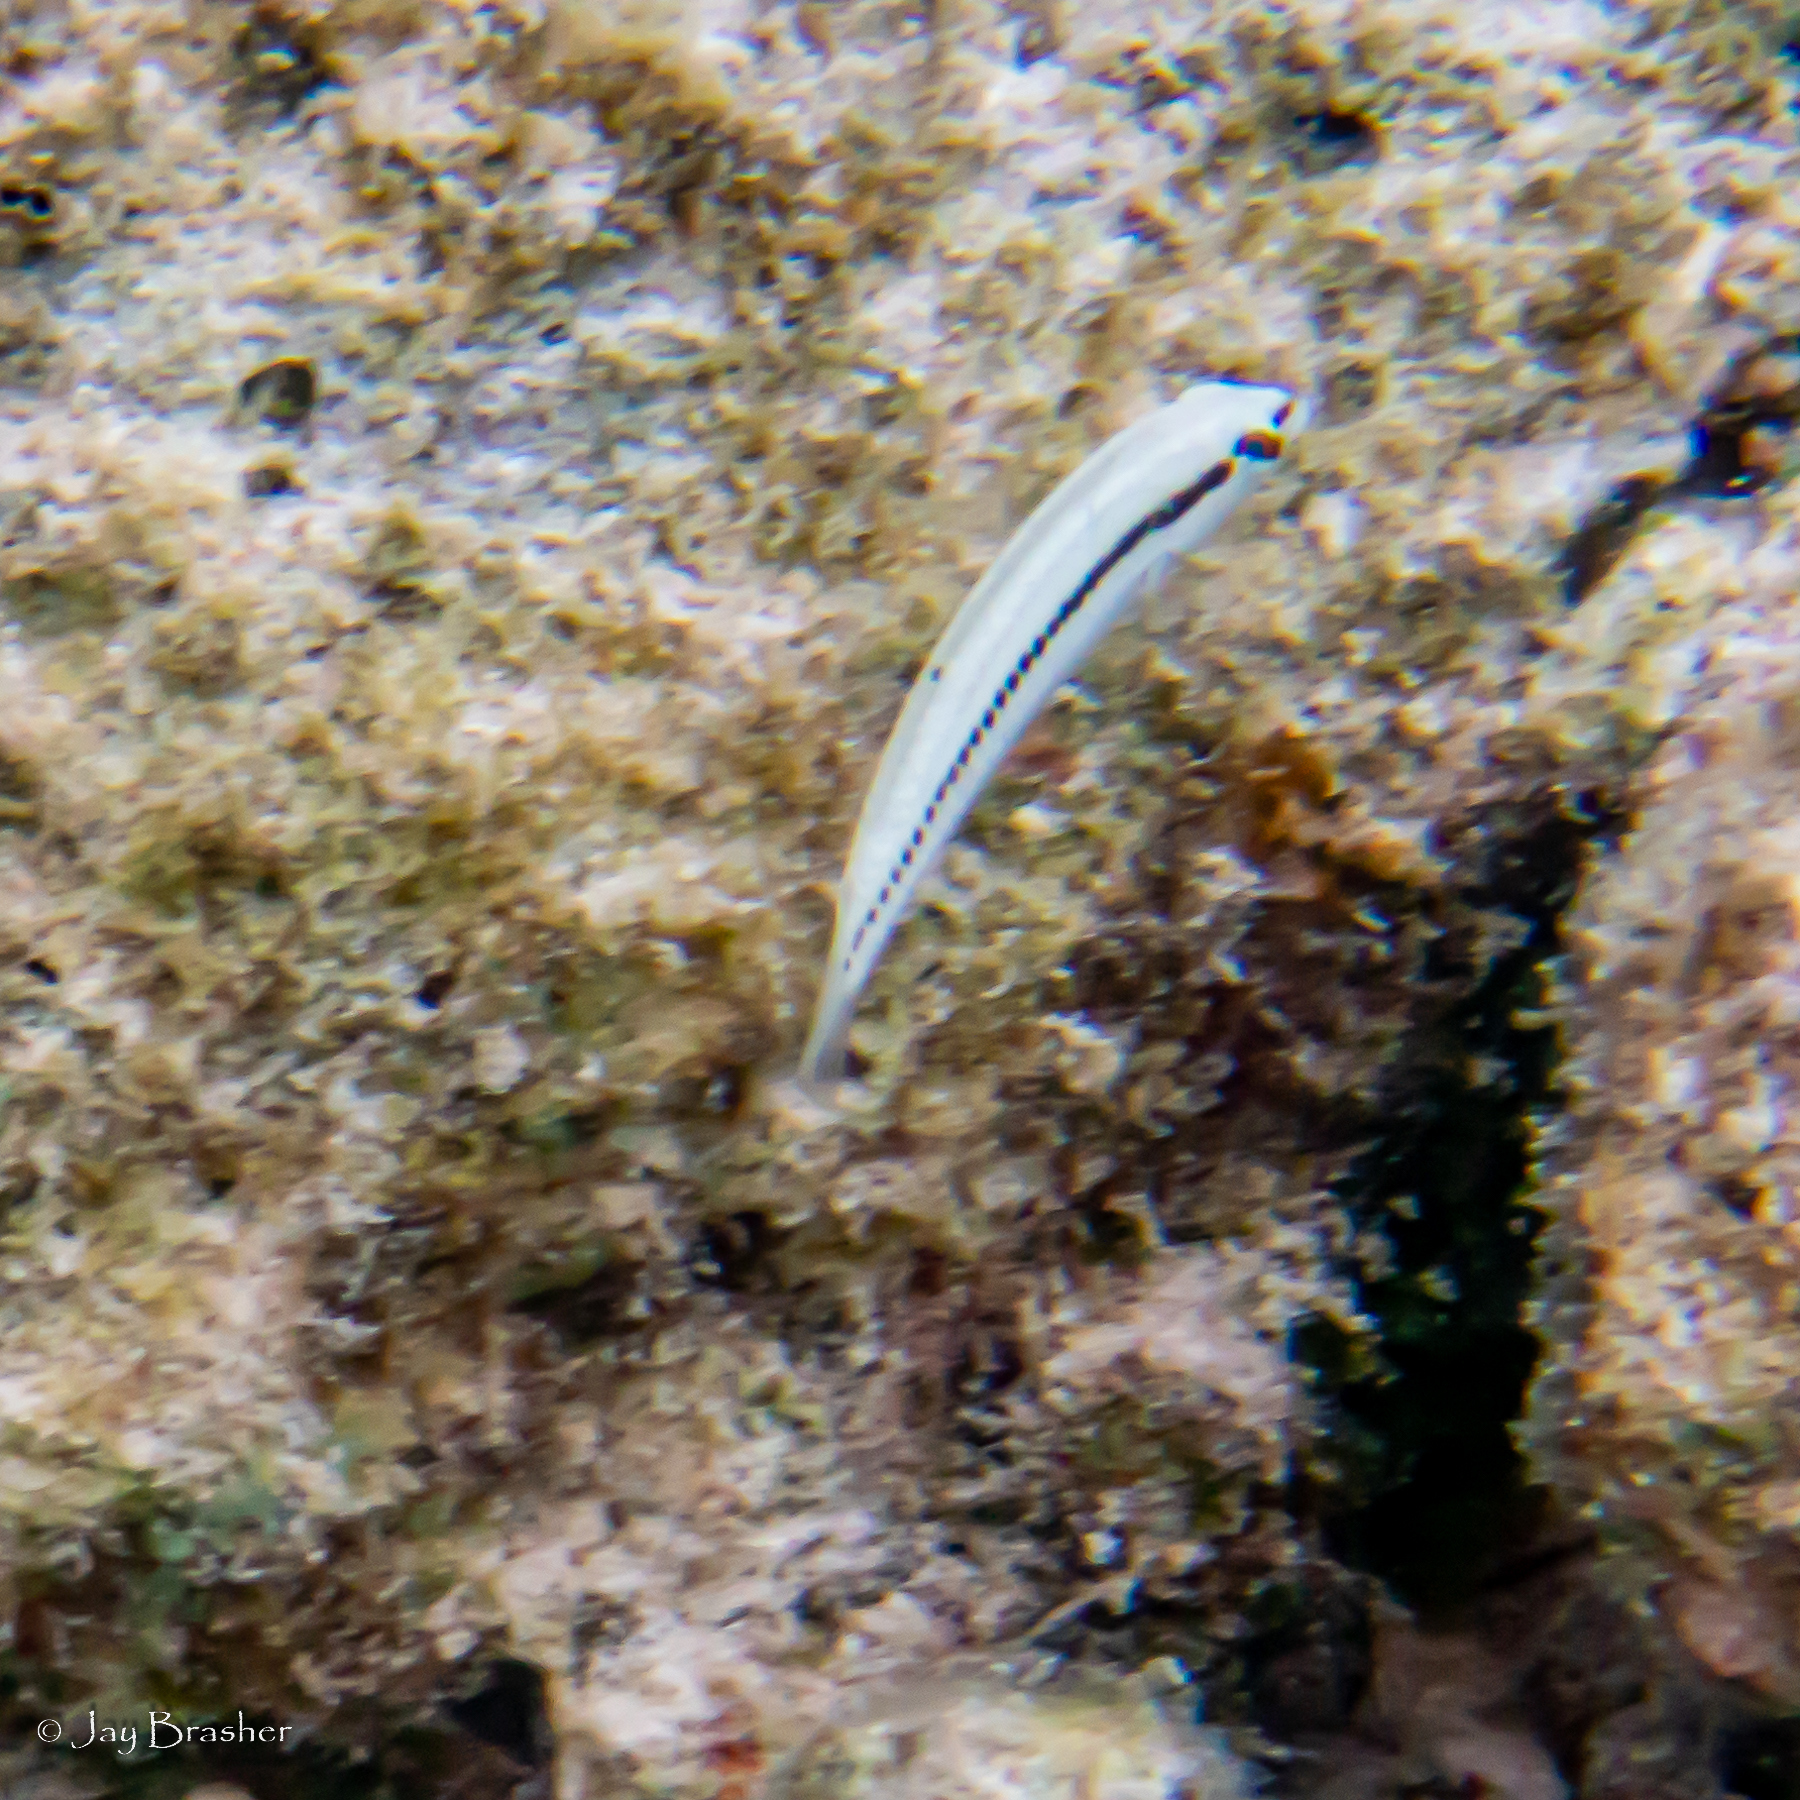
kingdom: Animalia
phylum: Chordata
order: Perciformes
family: Labridae
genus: Halichoeres
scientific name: Halichoeres bivittatus
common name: Slippery dick
